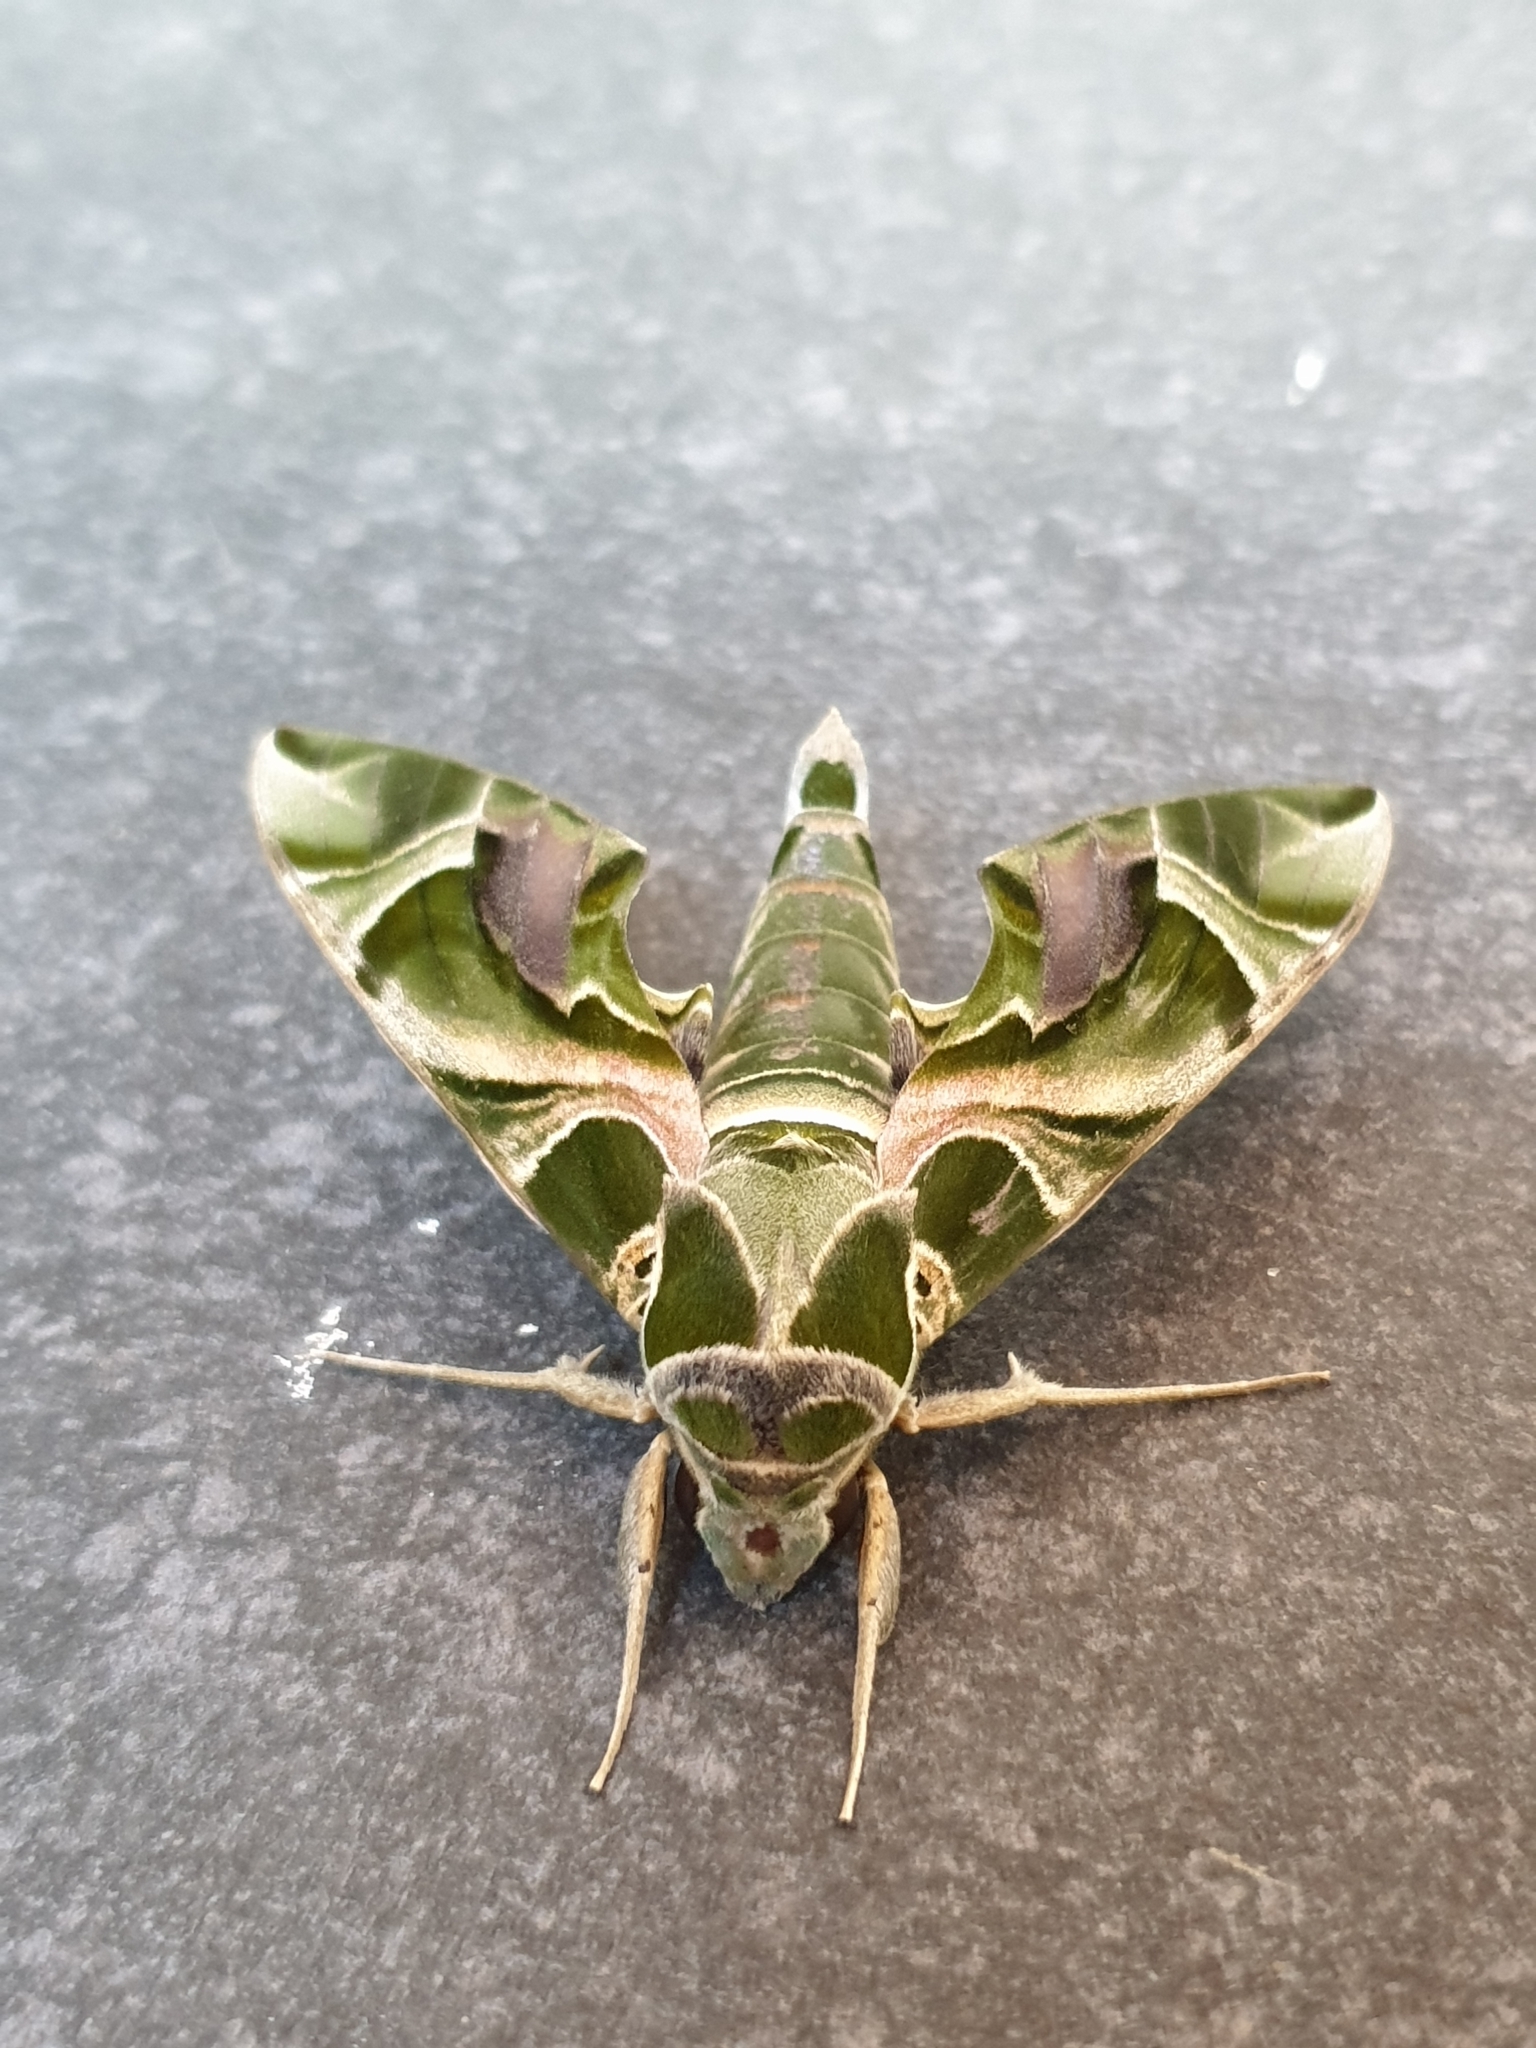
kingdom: Animalia
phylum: Arthropoda
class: Insecta
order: Lepidoptera
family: Sphingidae
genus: Daphnis
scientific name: Daphnis nerii
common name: Oleander hawk-moth
